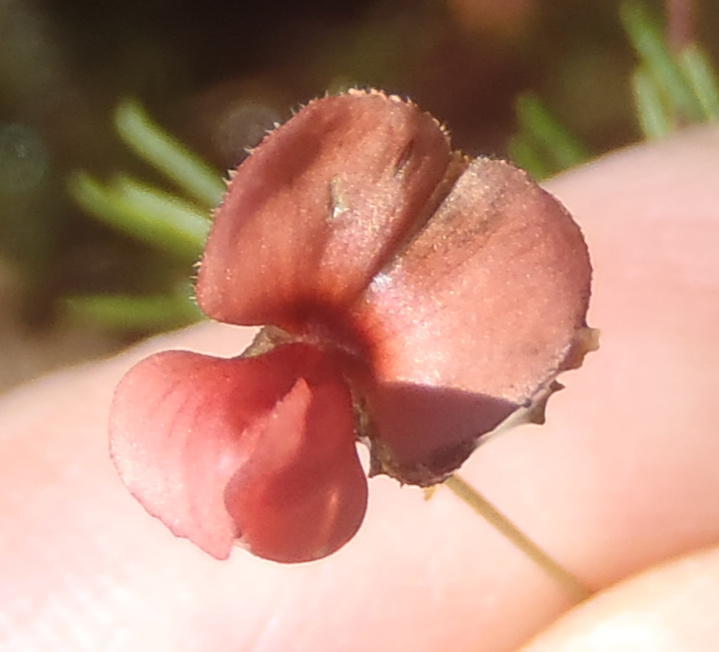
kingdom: Plantae
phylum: Tracheophyta
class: Magnoliopsida
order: Fabales
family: Fabaceae
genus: Indigofera
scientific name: Indigofera verrucosa
